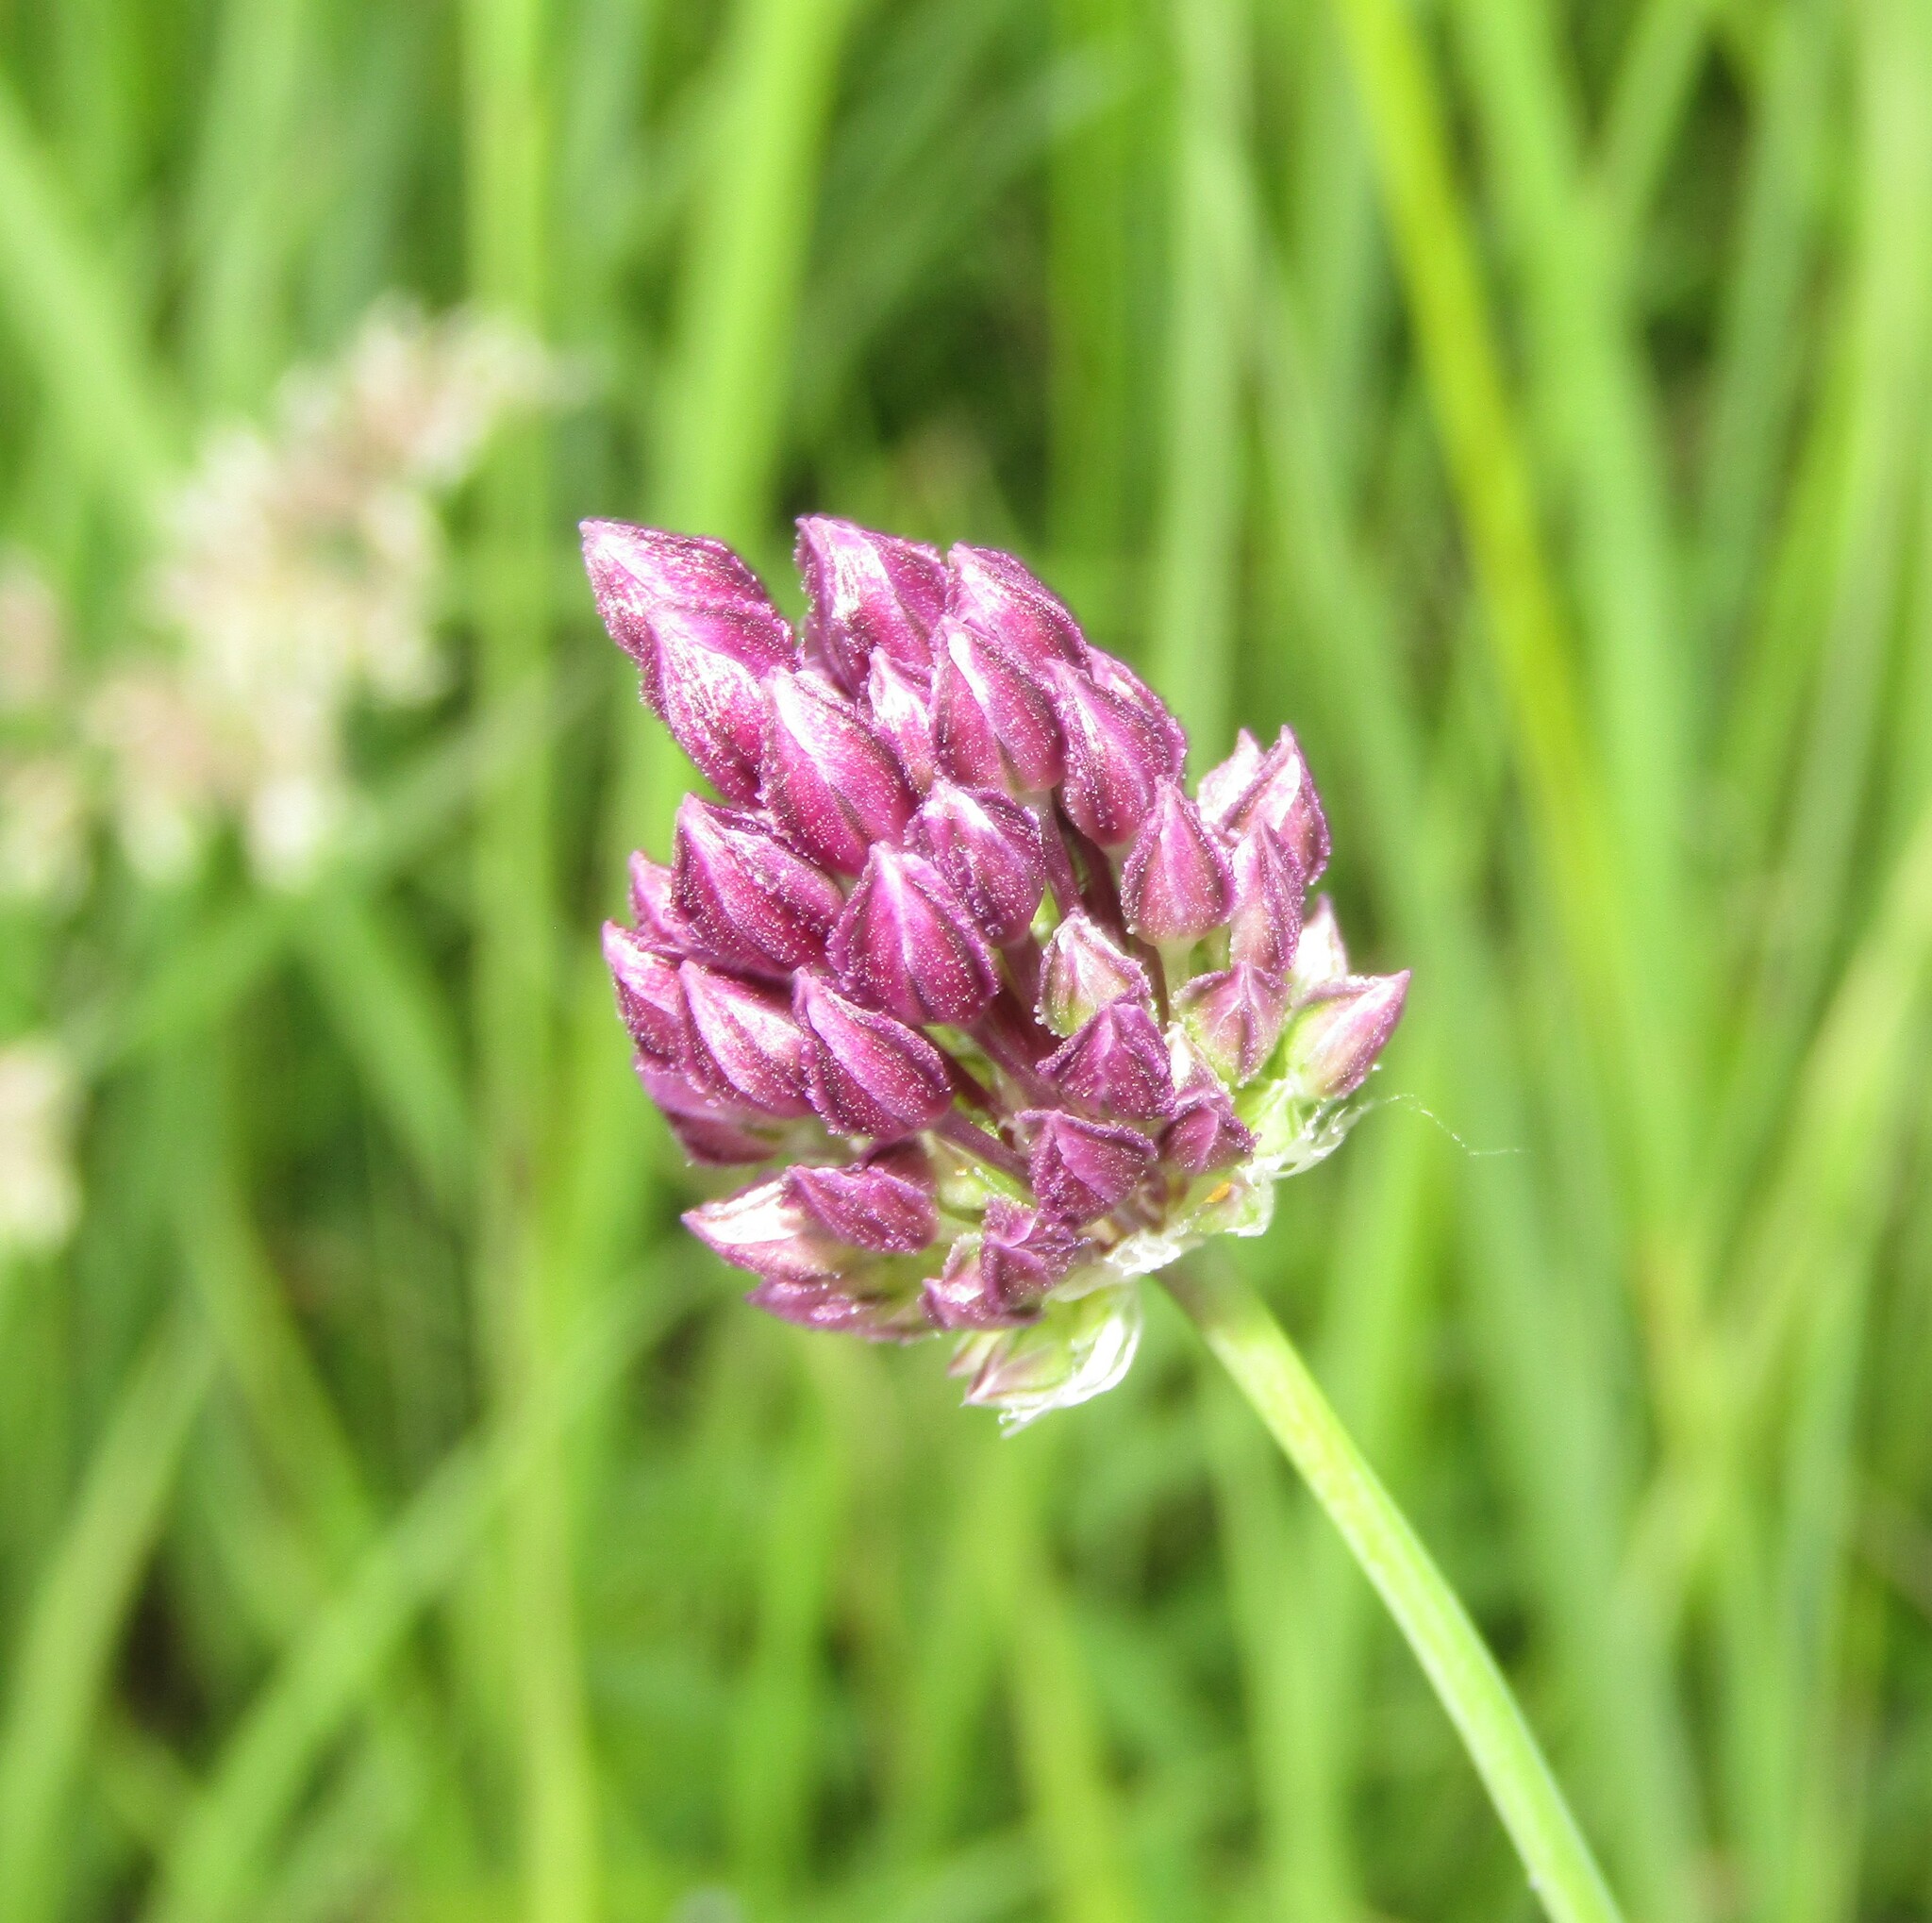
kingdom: Plantae
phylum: Tracheophyta
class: Liliopsida
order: Asparagales
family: Amaryllidaceae
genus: Allium
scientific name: Allium rotundum
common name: Sand leek
